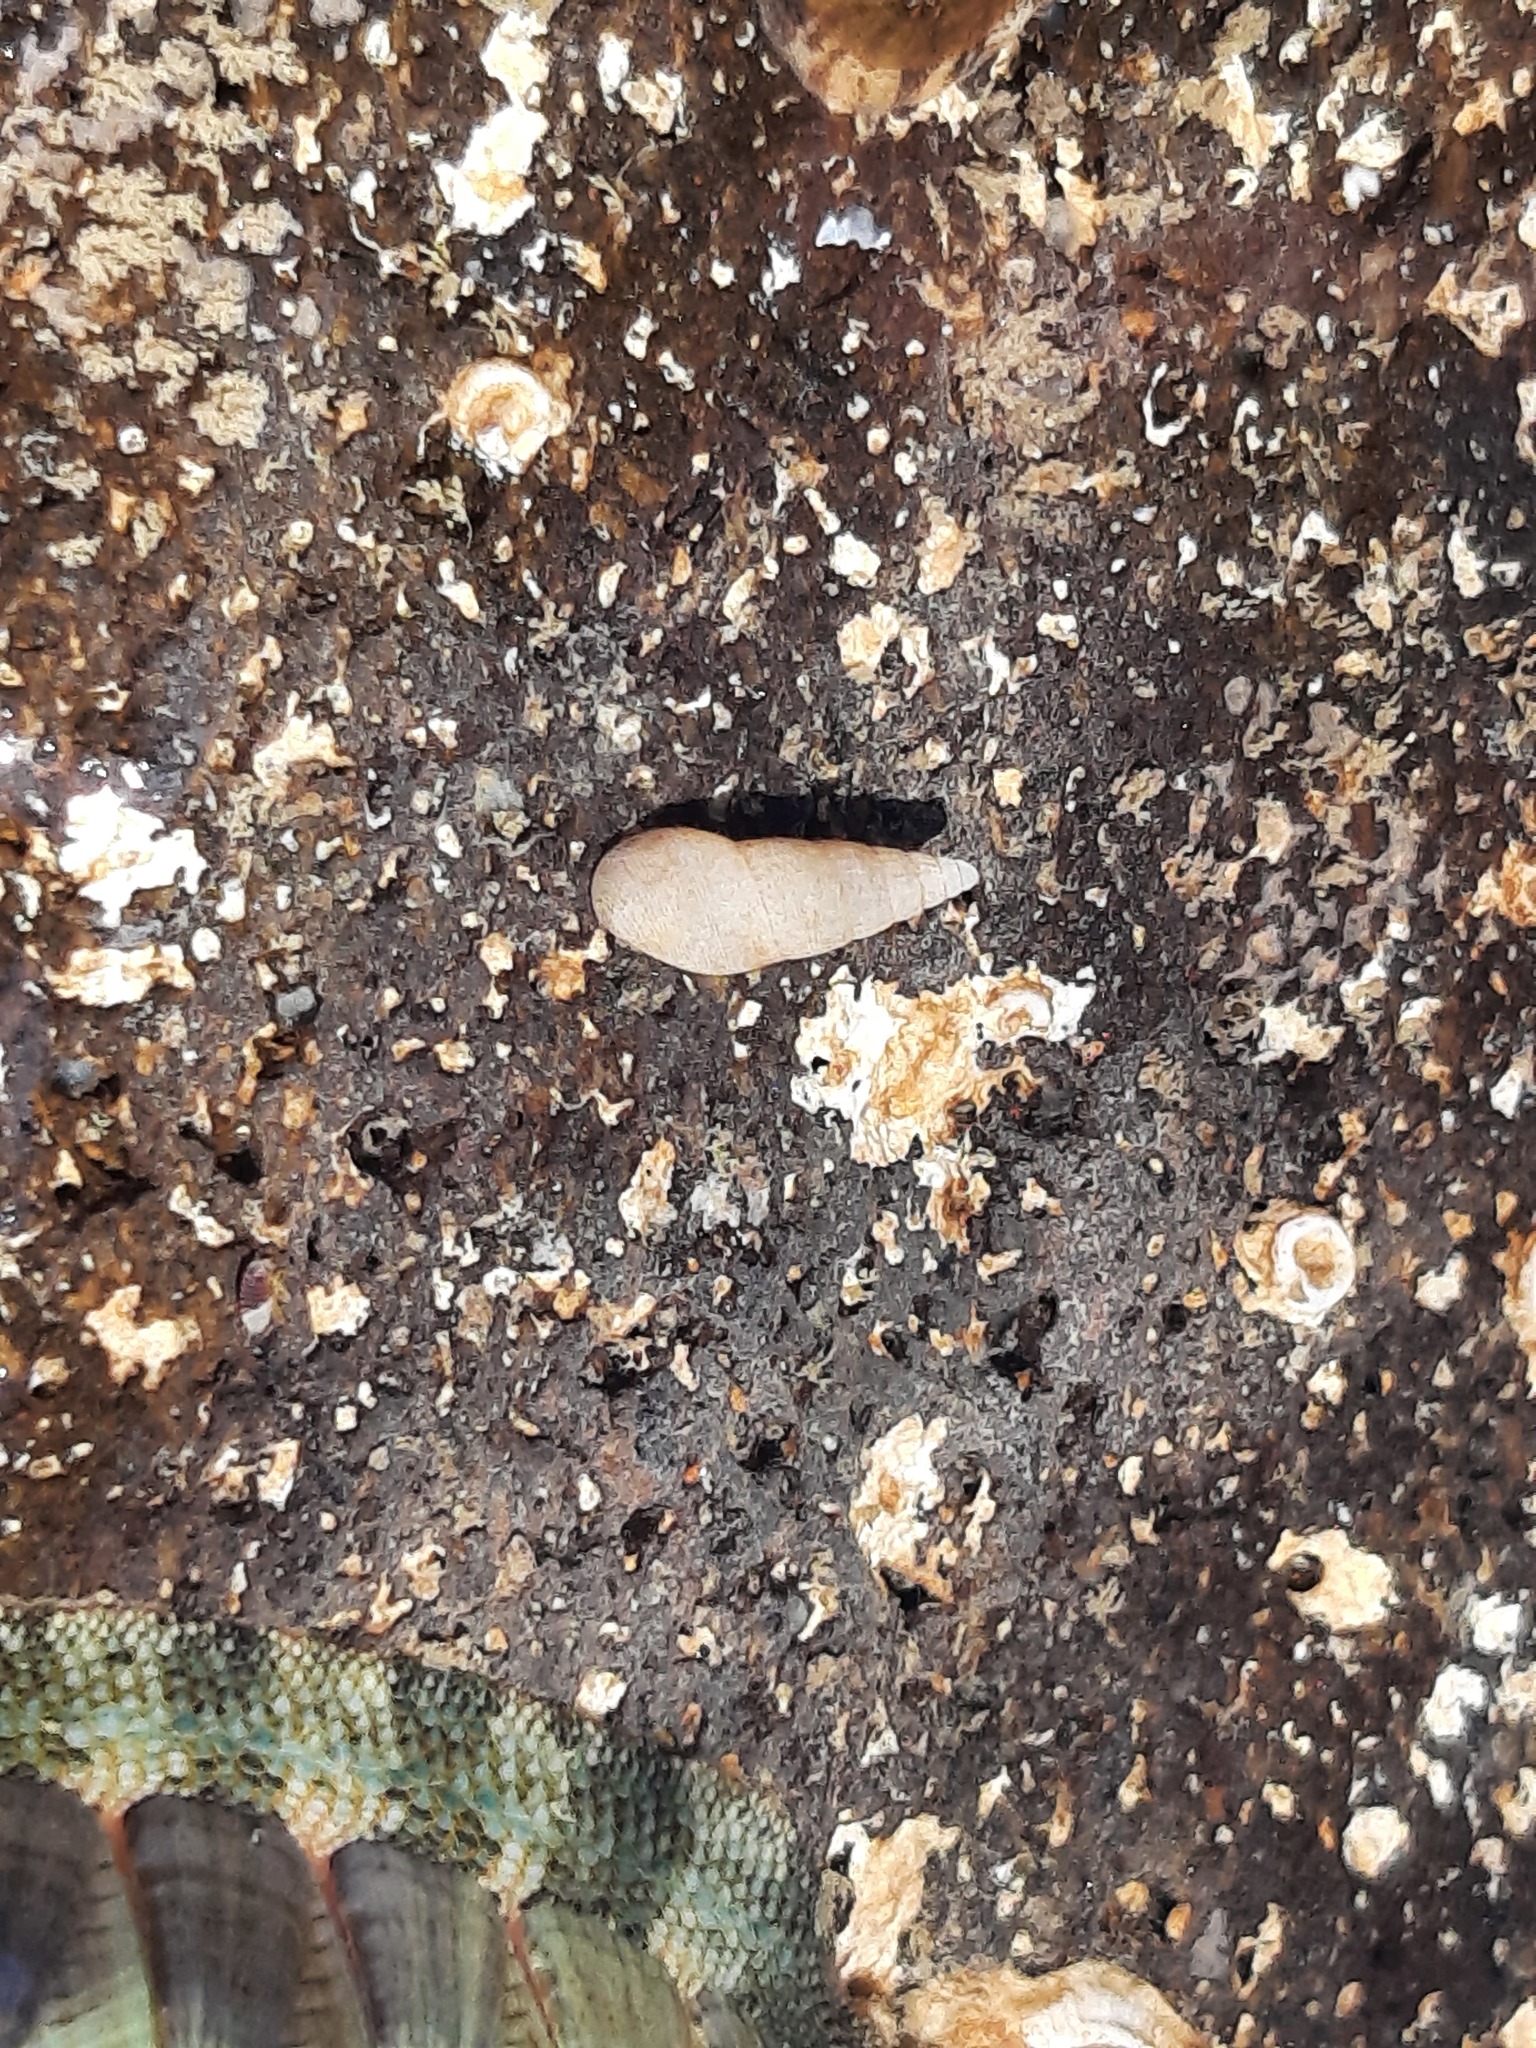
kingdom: Animalia
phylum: Mollusca
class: Gastropoda
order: Littorinimorpha
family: Rissoinidae
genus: Rissoina
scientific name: Rissoina chathamensis
